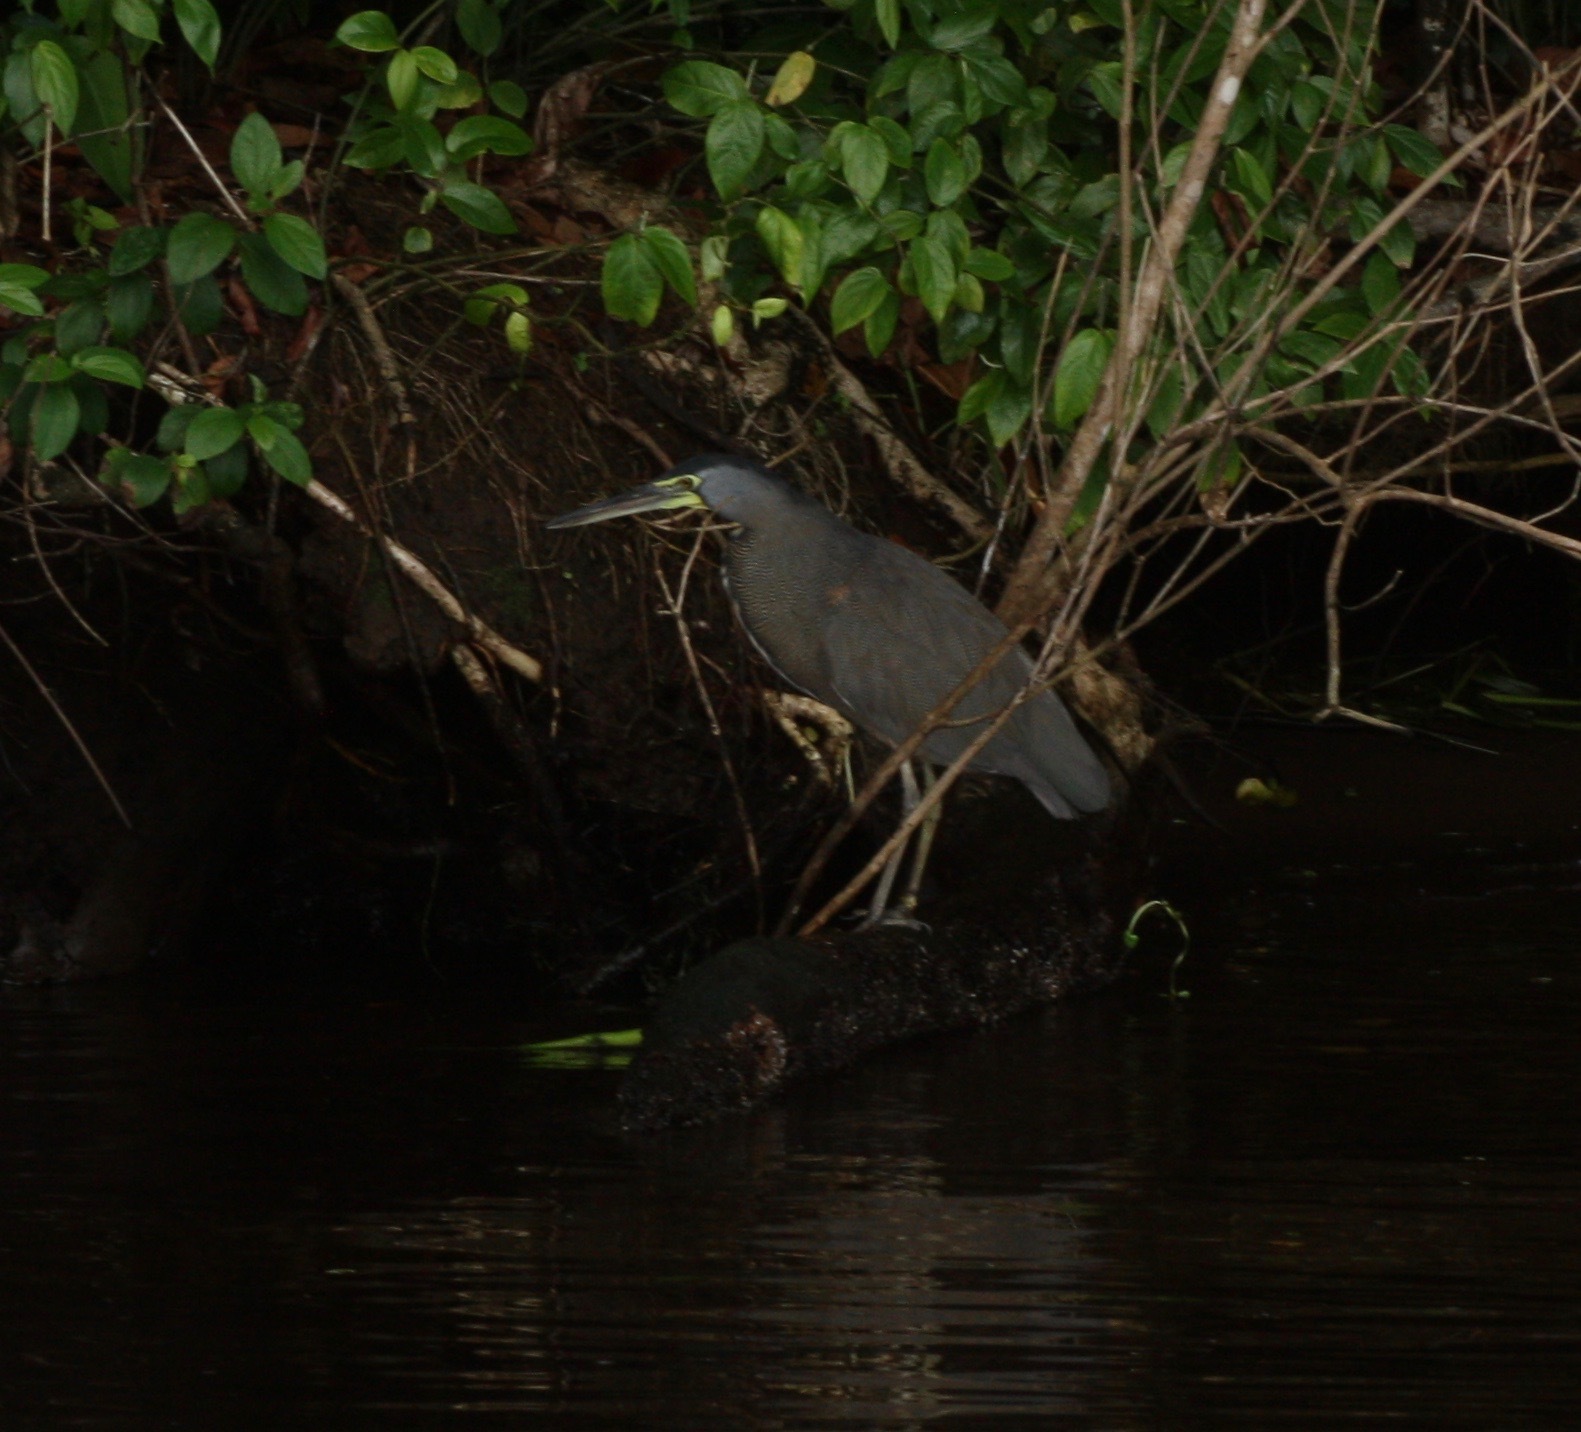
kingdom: Animalia
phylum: Chordata
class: Aves
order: Pelecaniformes
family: Ardeidae
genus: Tigrisoma
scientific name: Tigrisoma mexicanum
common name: Bare-throated tiger-heron
